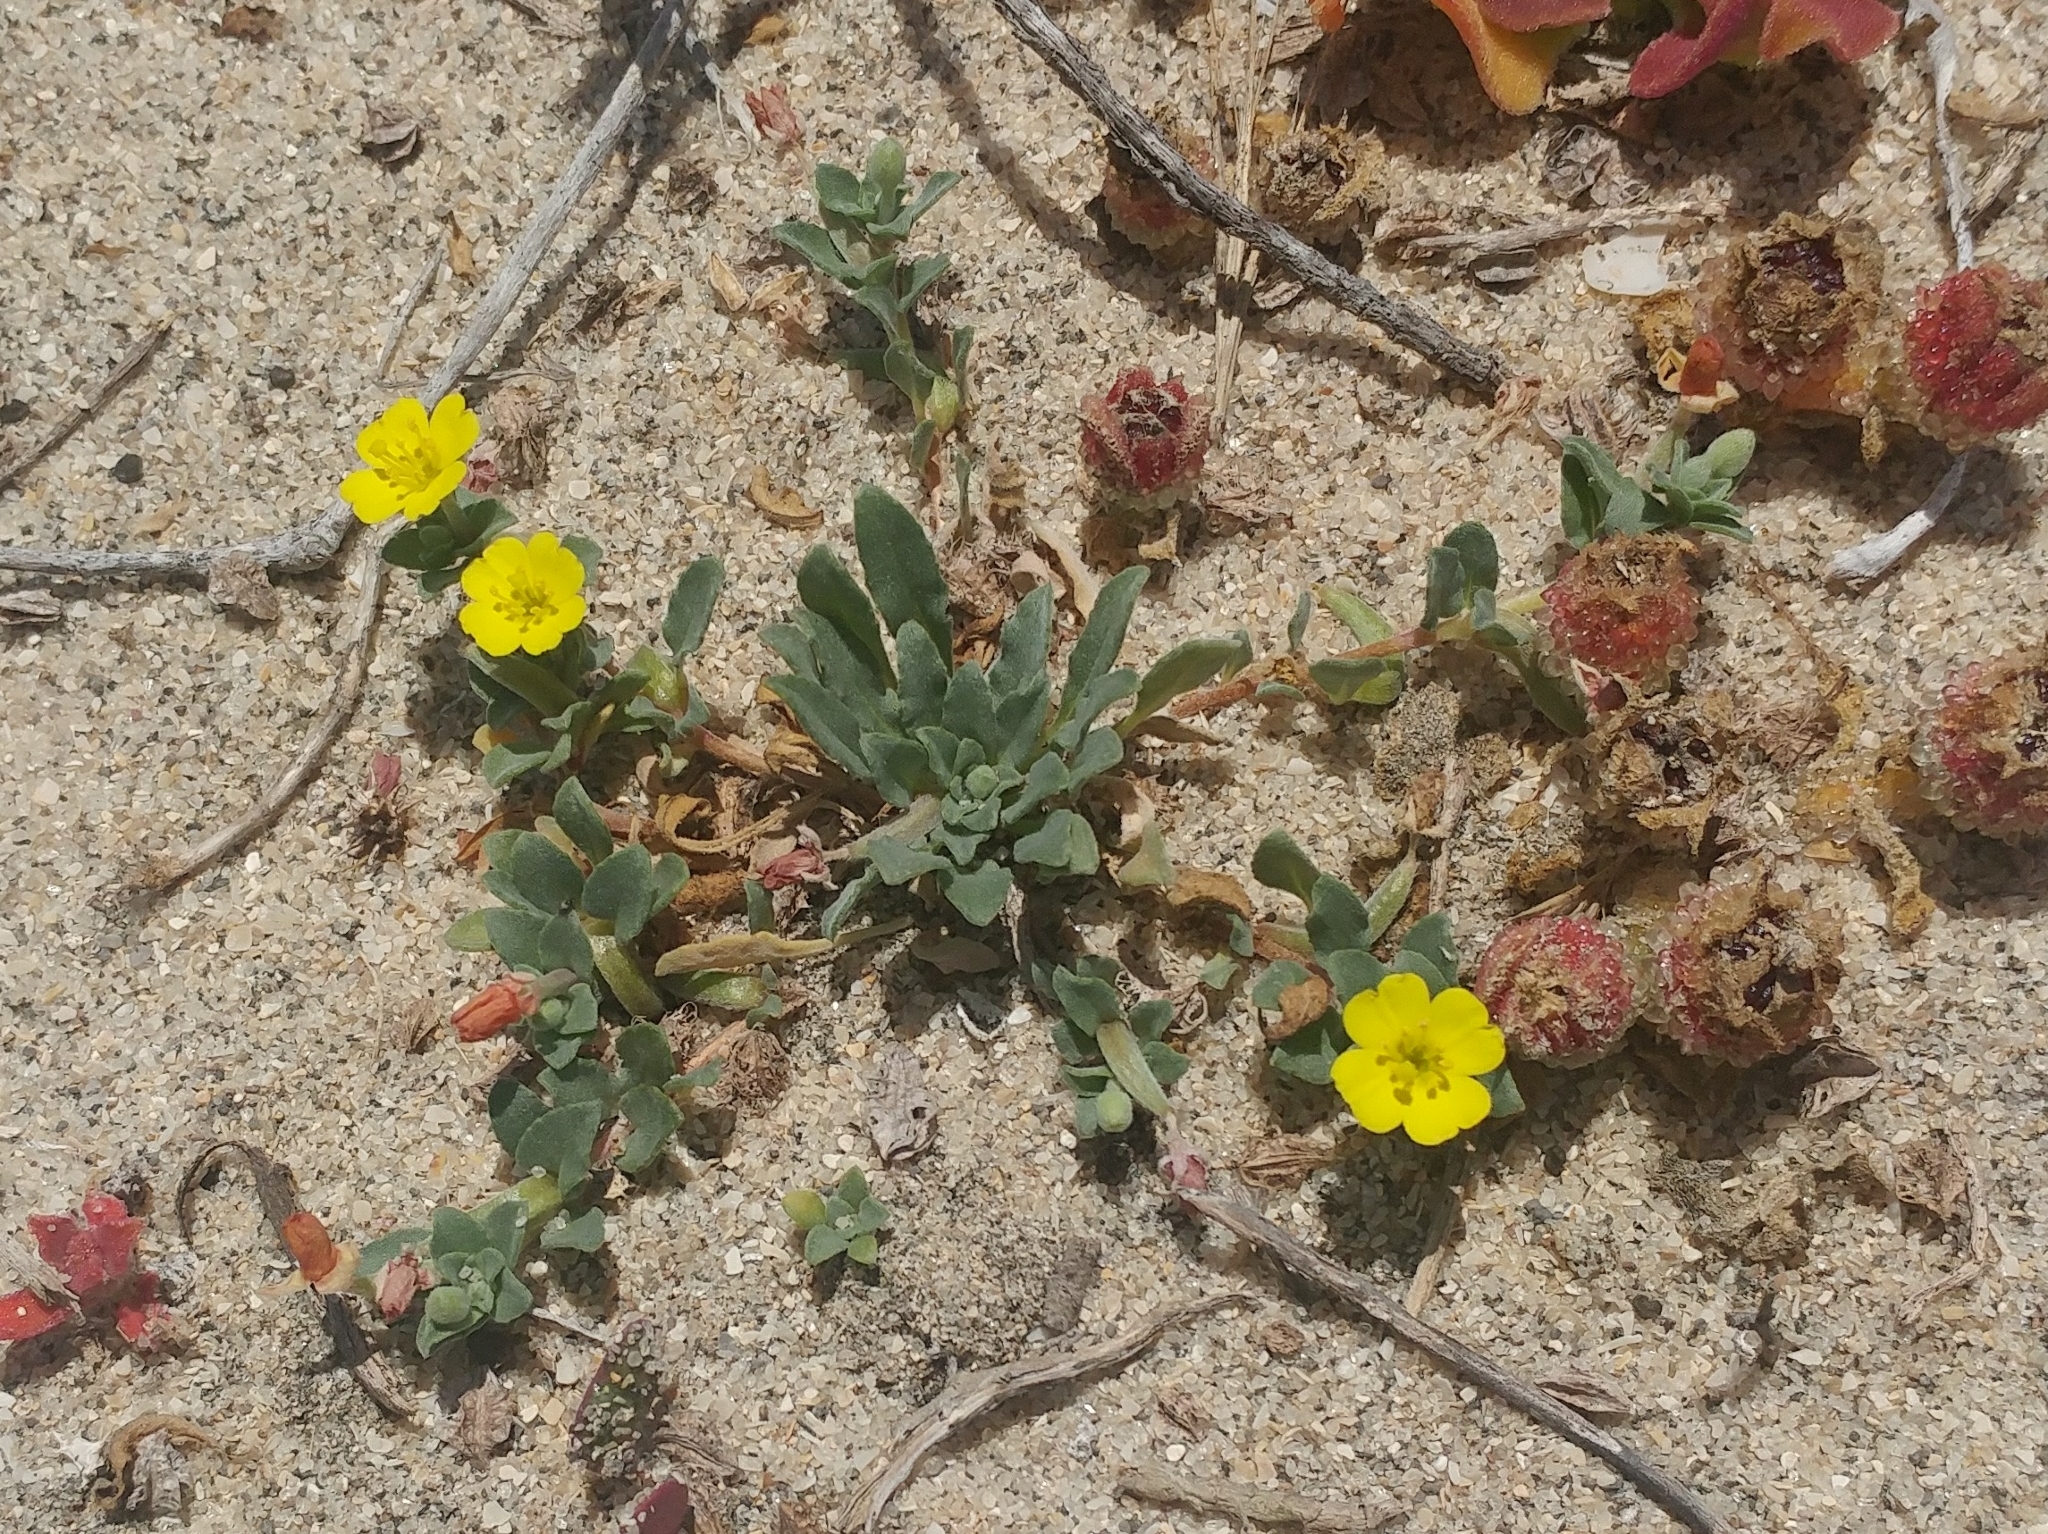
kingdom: Plantae
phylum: Tracheophyta
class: Magnoliopsida
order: Myrtales
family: Onagraceae
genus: Camissoniopsis
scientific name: Camissoniopsis cheiranthifolia
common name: Beach suncup
